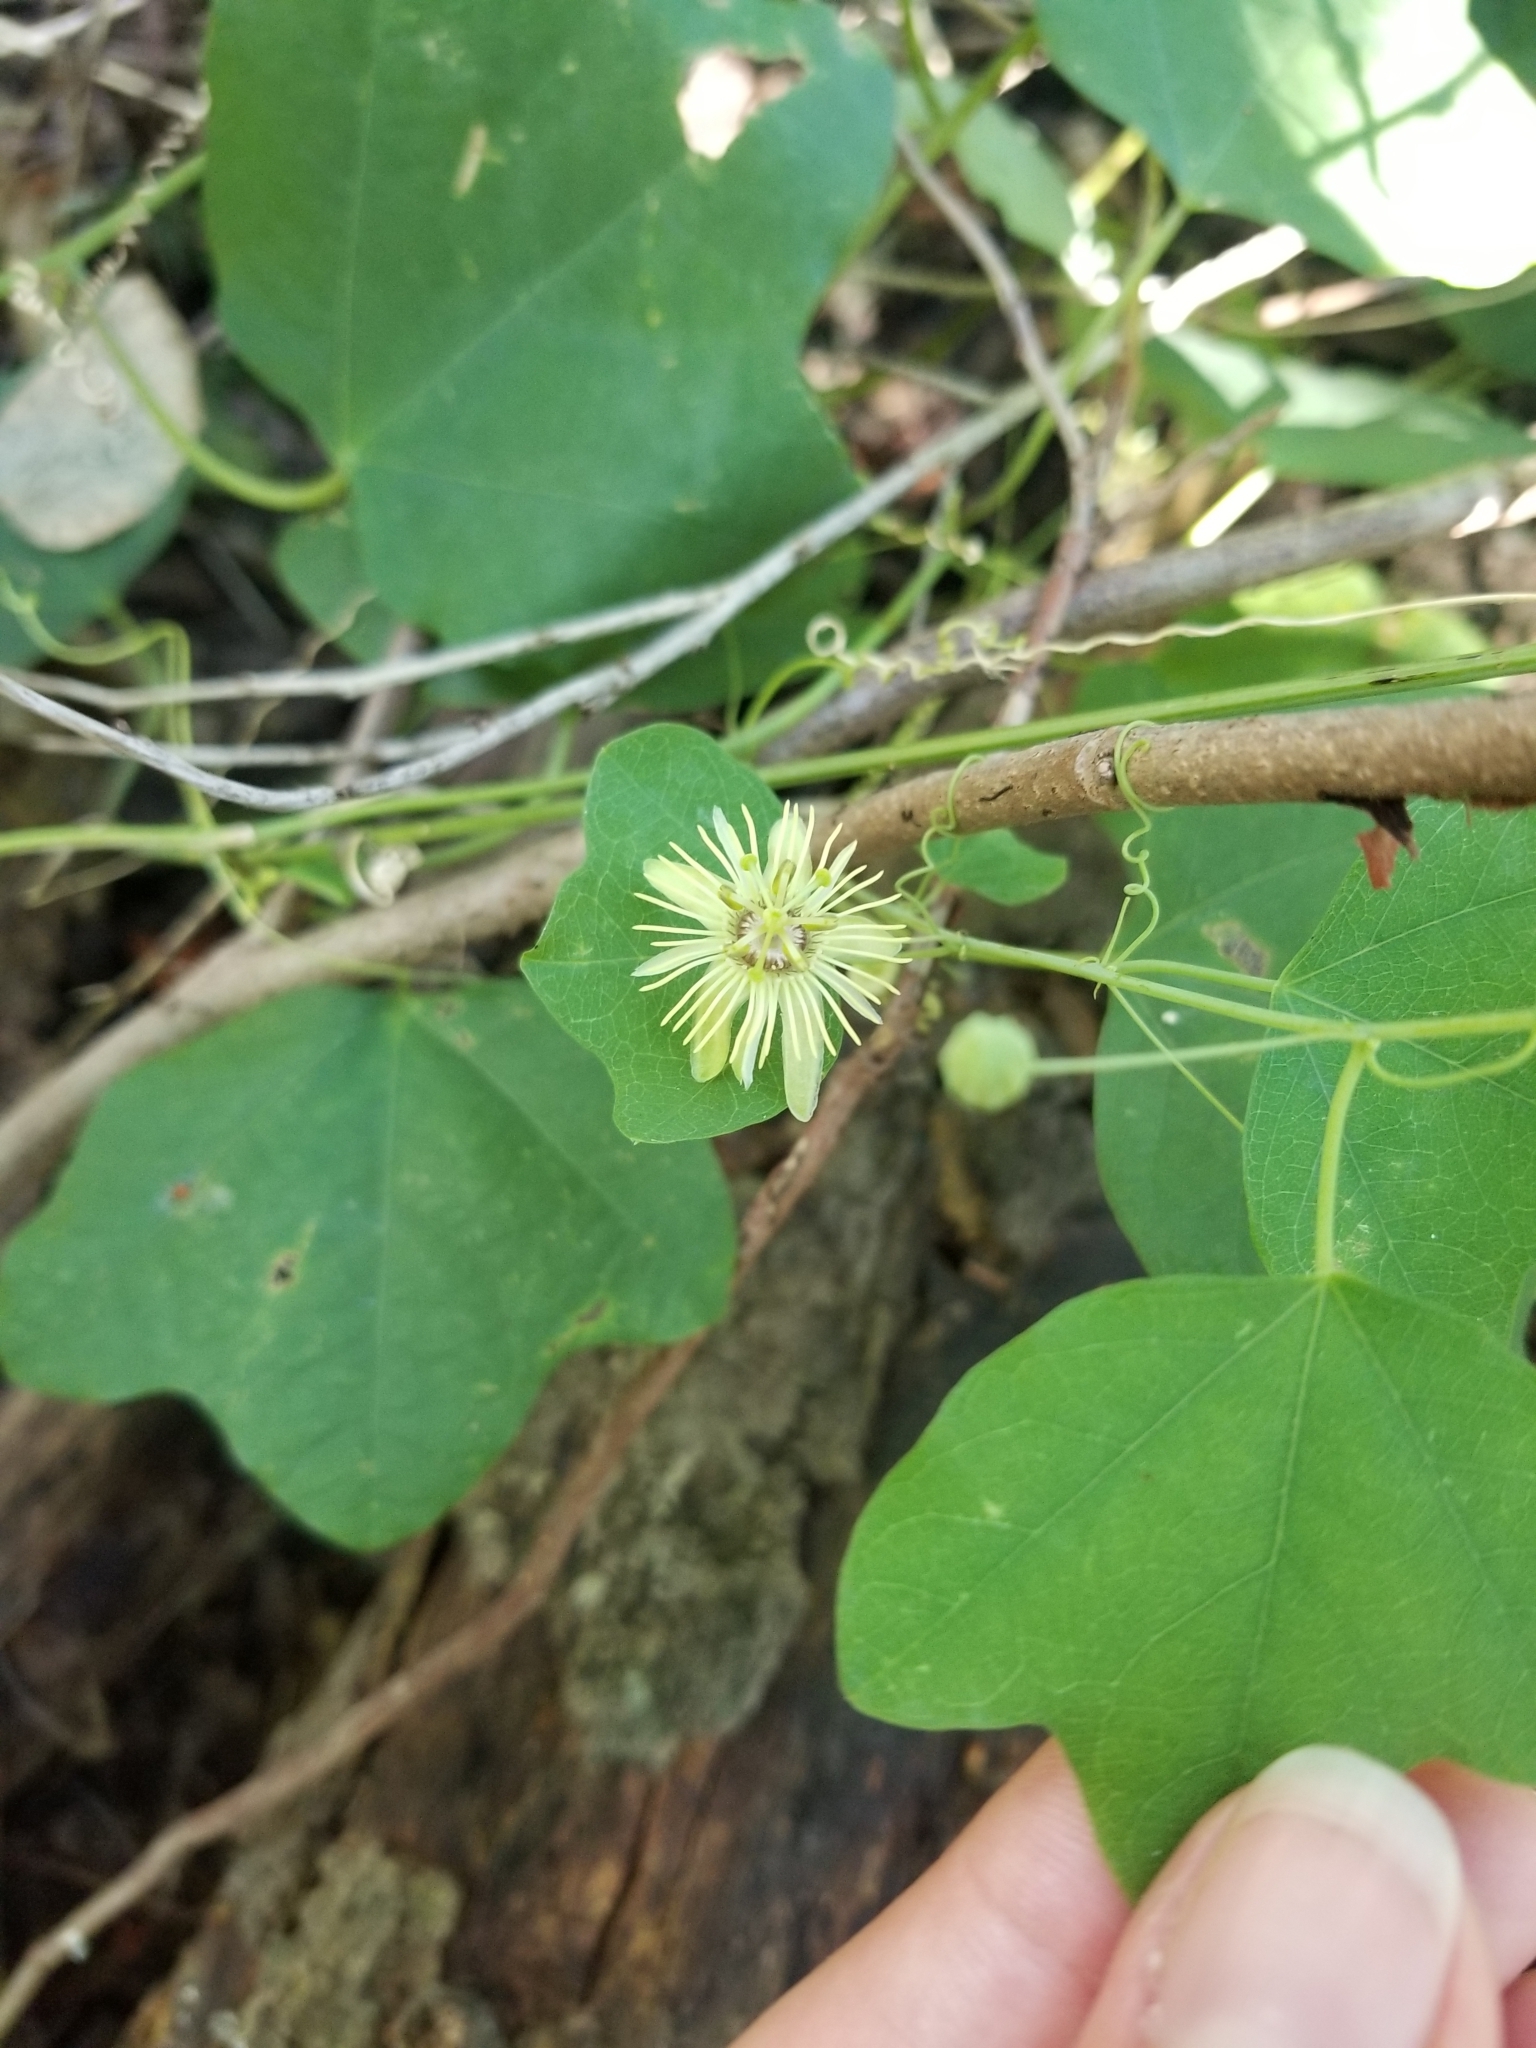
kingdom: Plantae
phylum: Tracheophyta
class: Magnoliopsida
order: Malpighiales
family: Passifloraceae
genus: Passiflora
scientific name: Passiflora lutea
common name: Yellow passionflower
